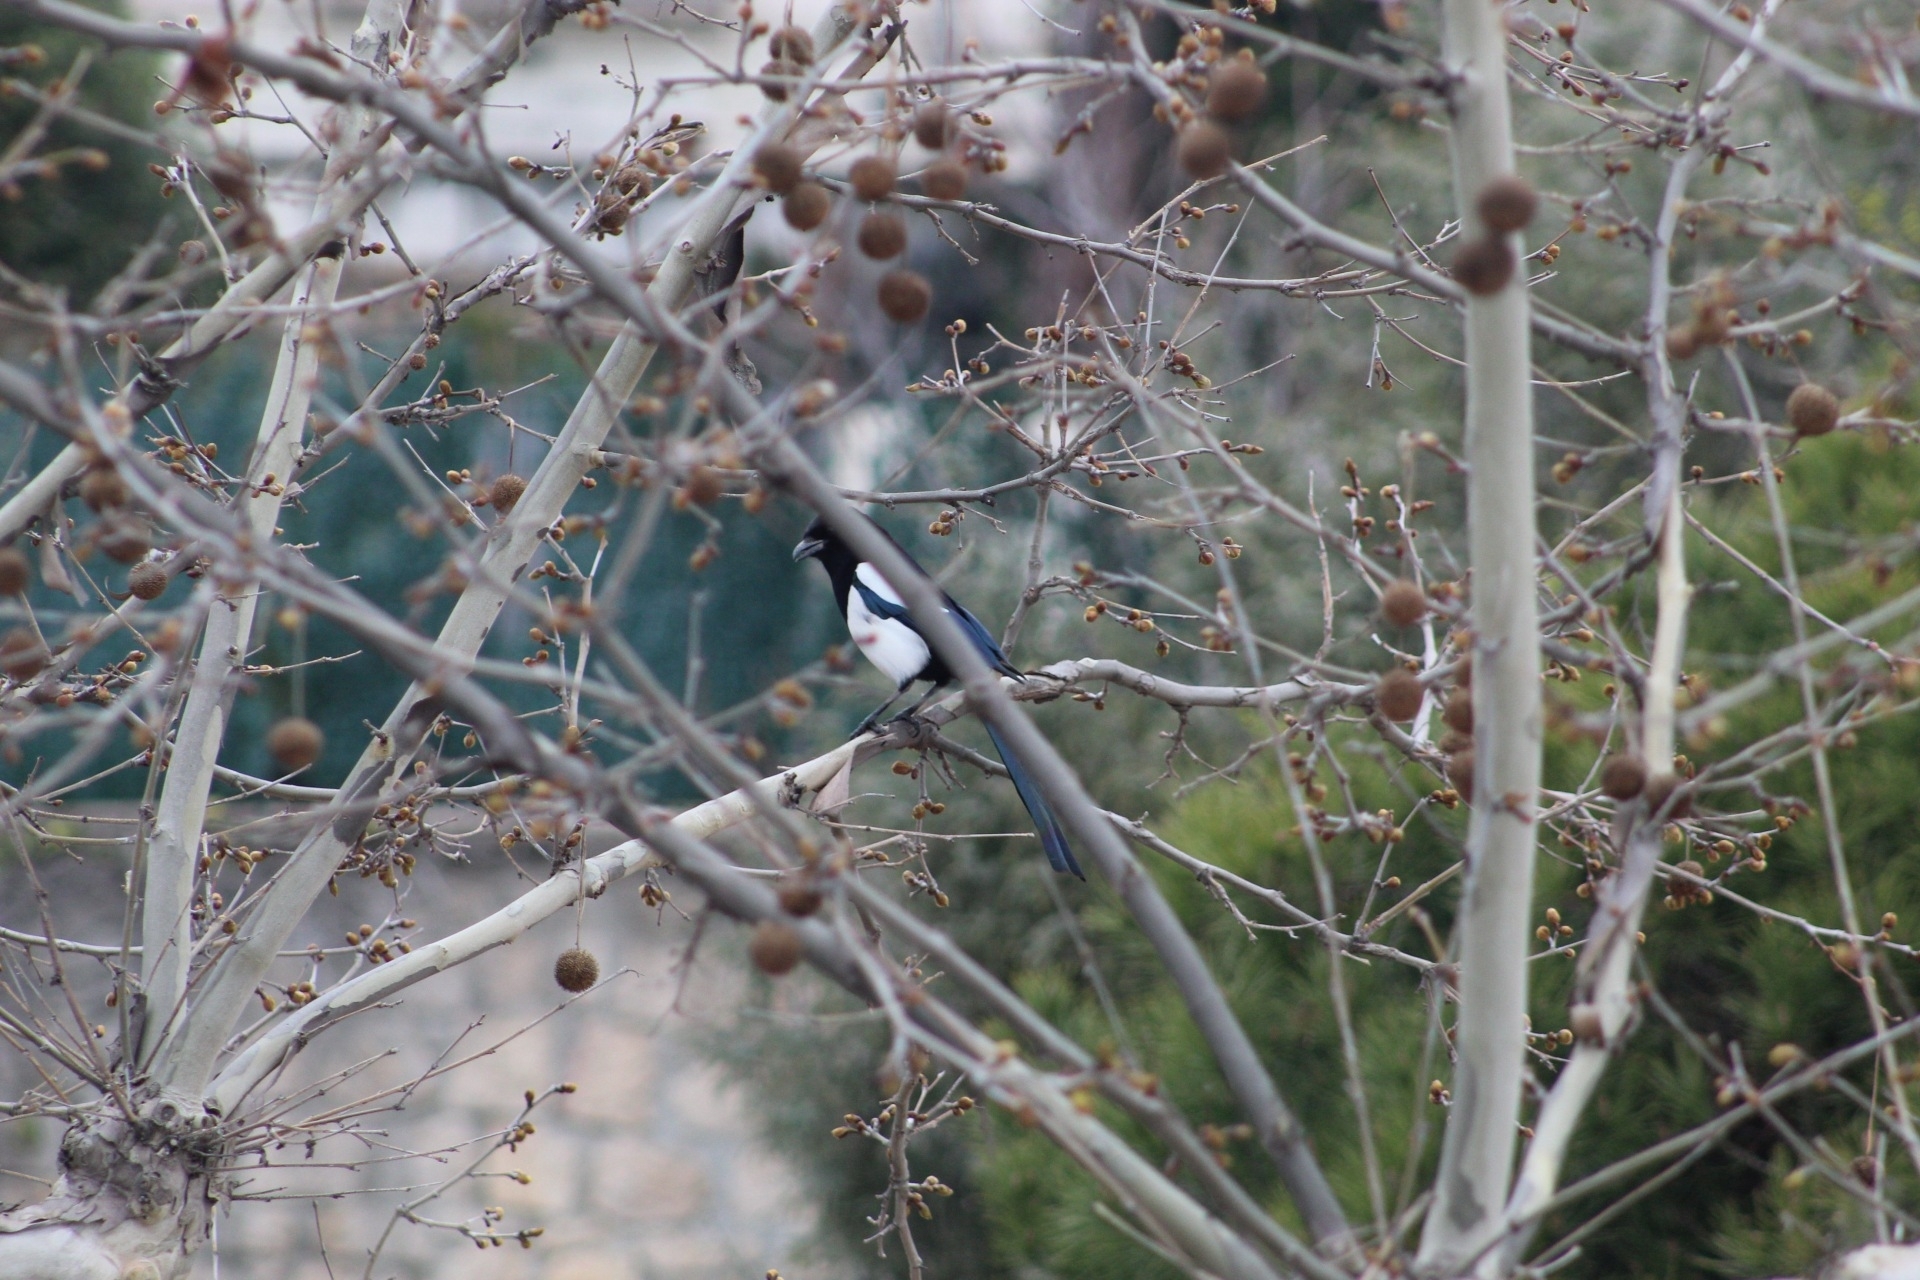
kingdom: Animalia
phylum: Chordata
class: Aves
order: Passeriformes
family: Corvidae
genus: Pica
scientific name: Pica pica
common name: Eurasian magpie
